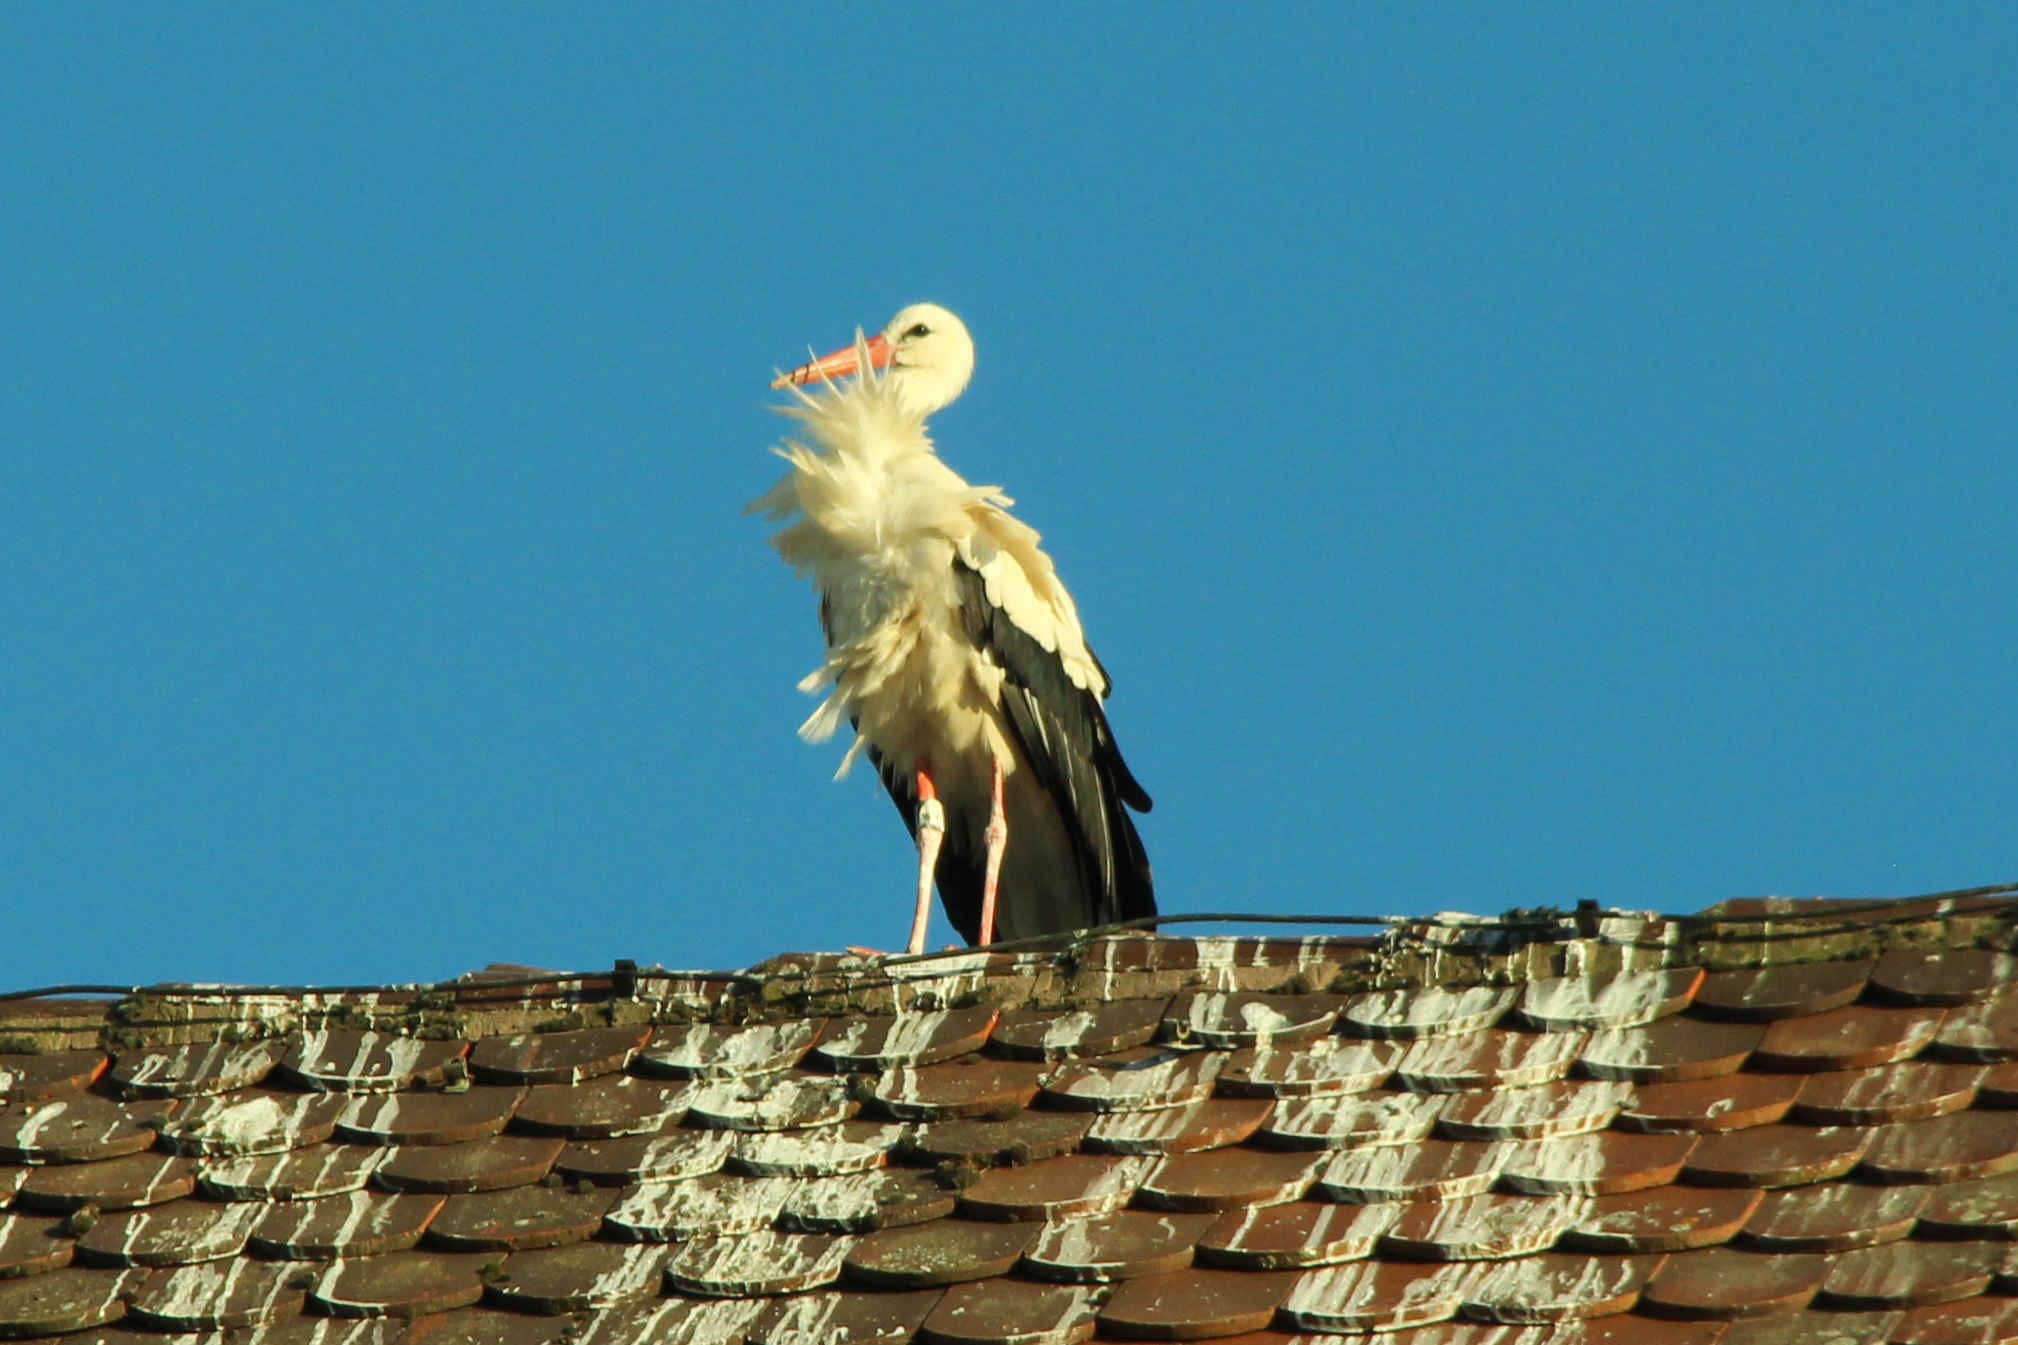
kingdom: Animalia
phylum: Chordata
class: Aves
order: Ciconiiformes
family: Ciconiidae
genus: Ciconia
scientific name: Ciconia ciconia
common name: White stork
